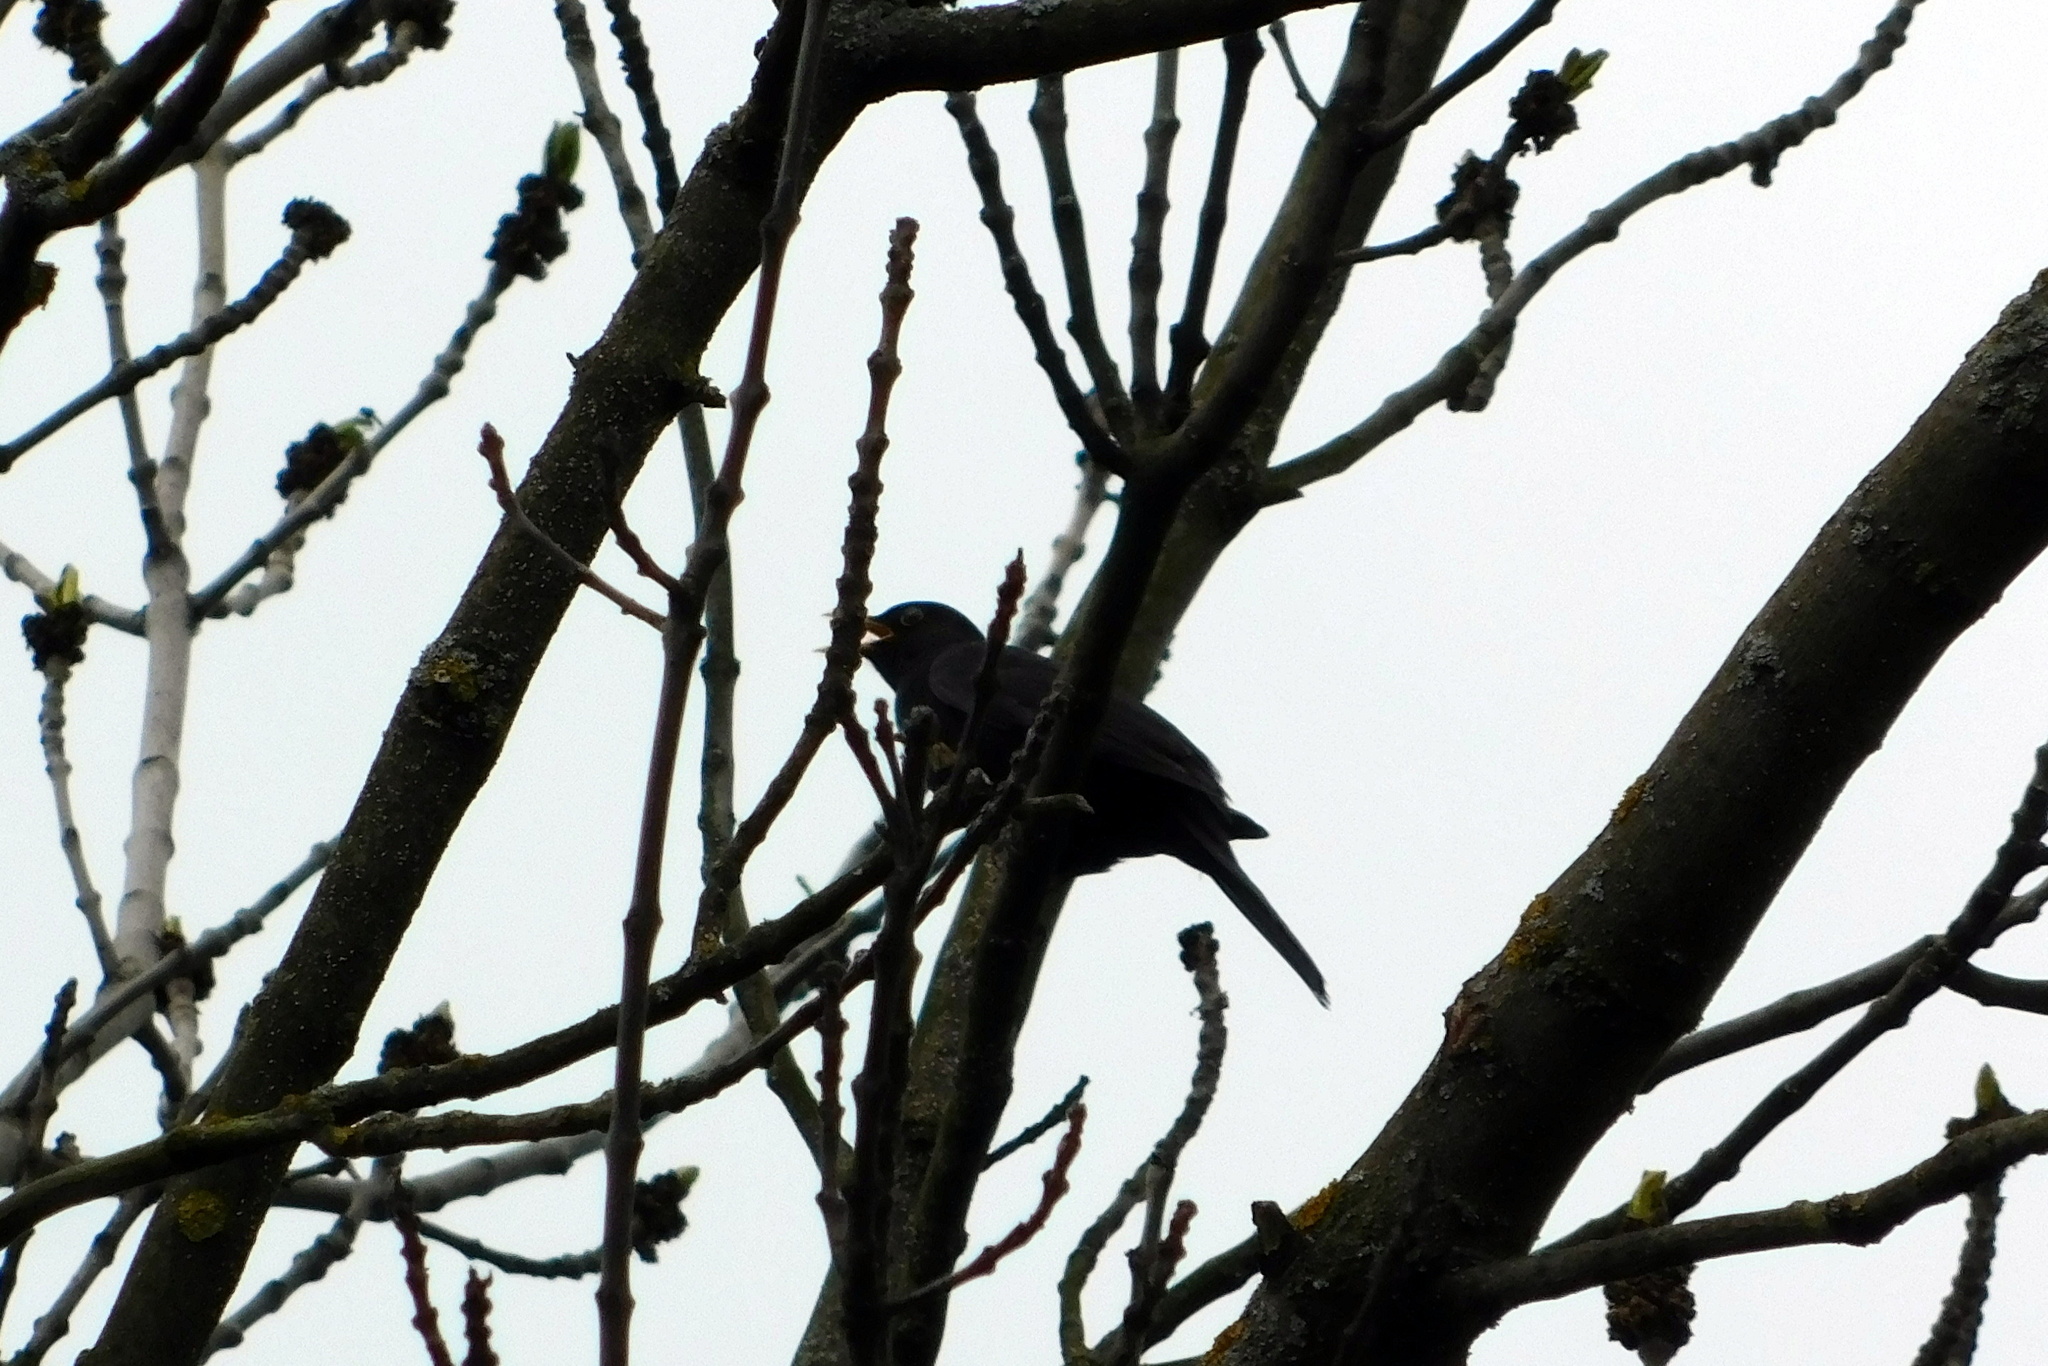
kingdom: Animalia
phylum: Chordata
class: Aves
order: Passeriformes
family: Turdidae
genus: Turdus
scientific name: Turdus merula
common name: Common blackbird
